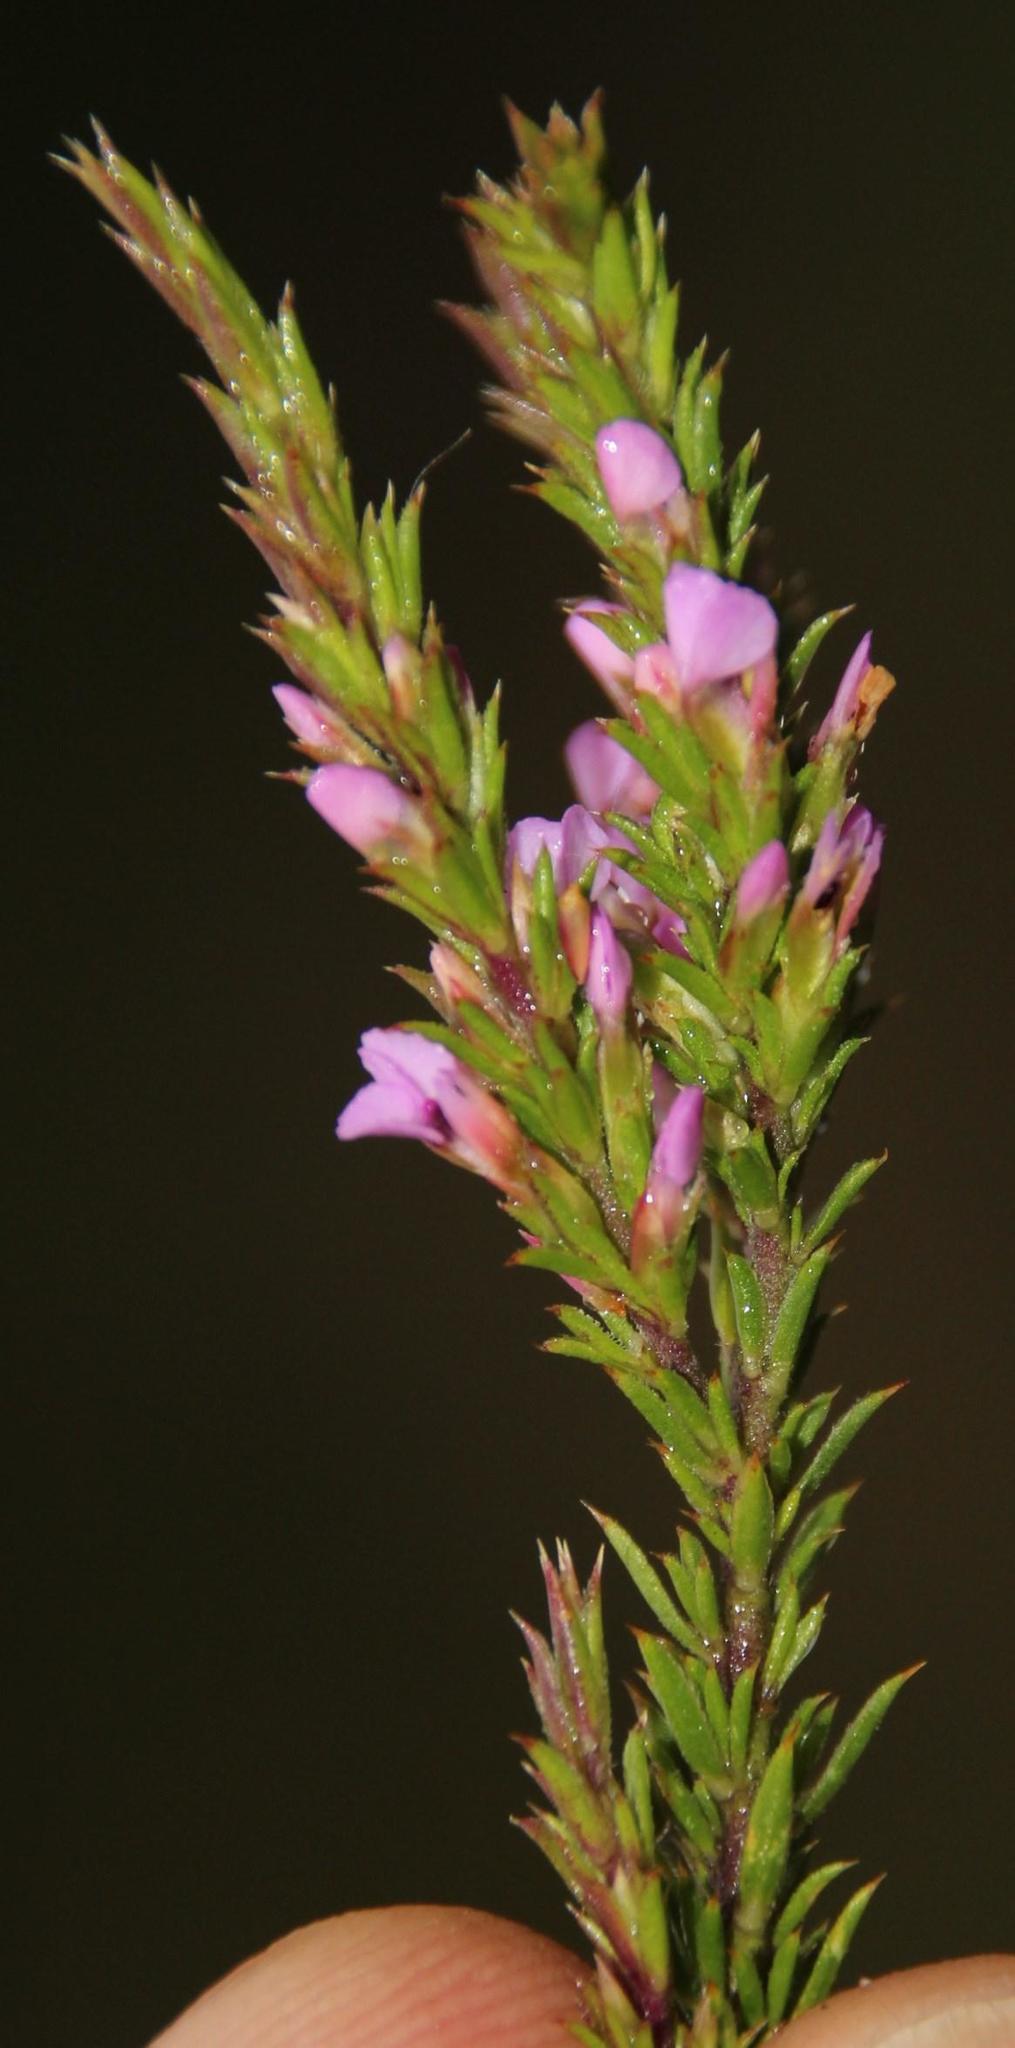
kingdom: Plantae
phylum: Tracheophyta
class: Magnoliopsida
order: Fabales
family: Polygalaceae
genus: Muraltia
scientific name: Muraltia pageae
